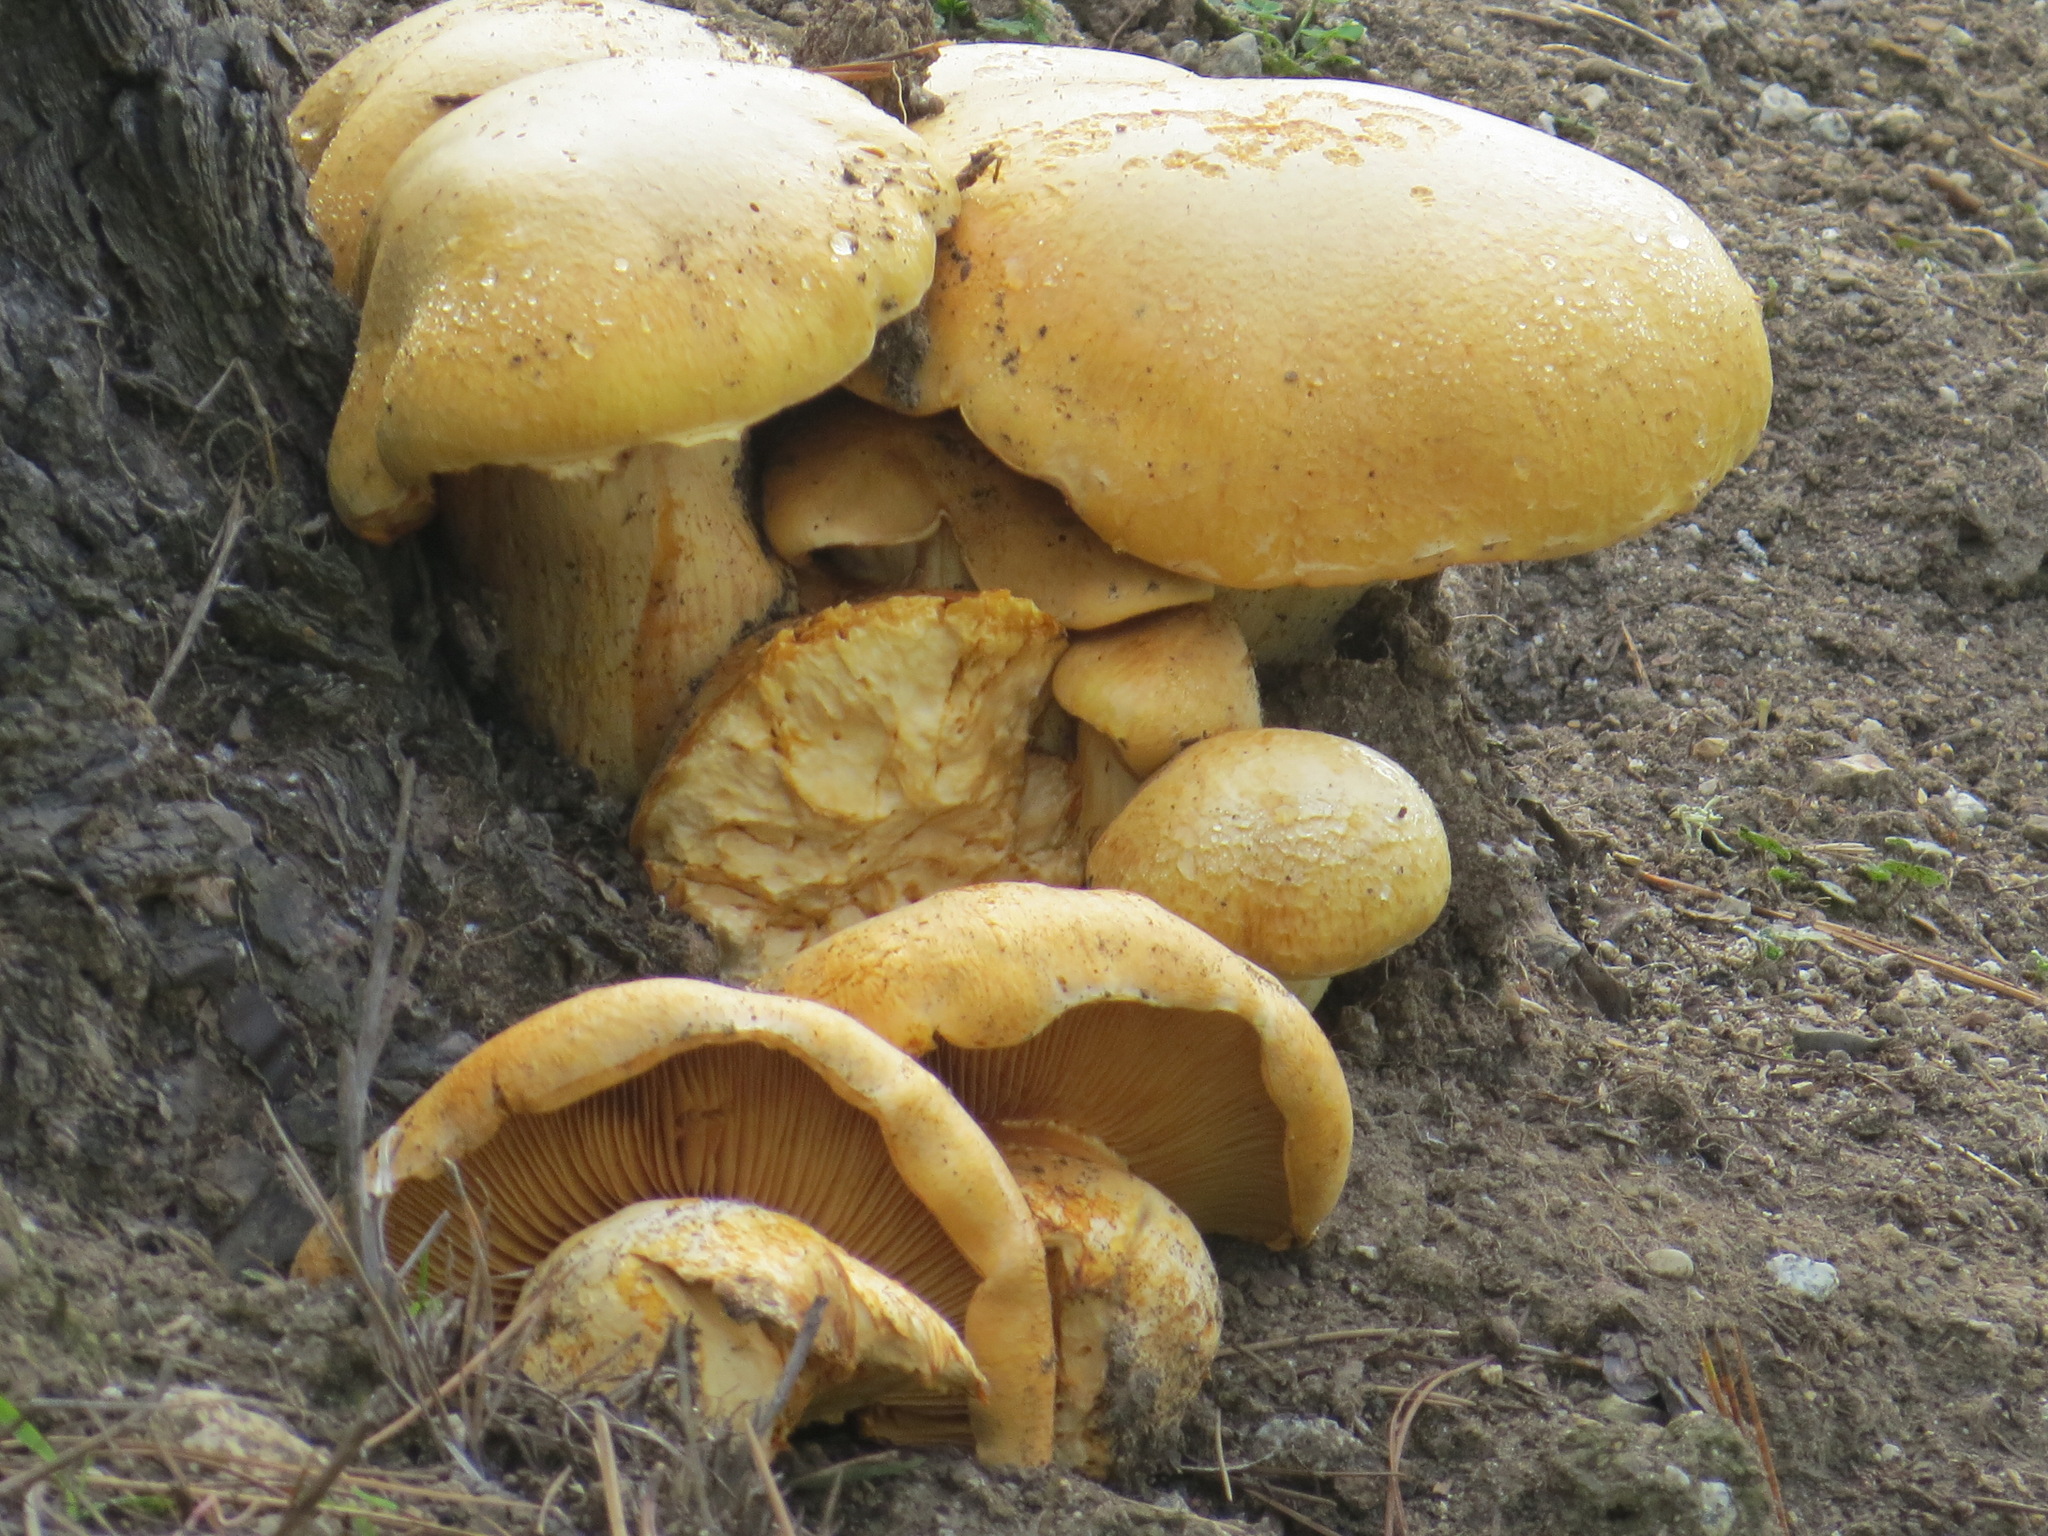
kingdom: Fungi
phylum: Basidiomycota
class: Agaricomycetes
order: Agaricales
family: Hymenogastraceae
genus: Gymnopilus
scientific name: Gymnopilus ventricosus
